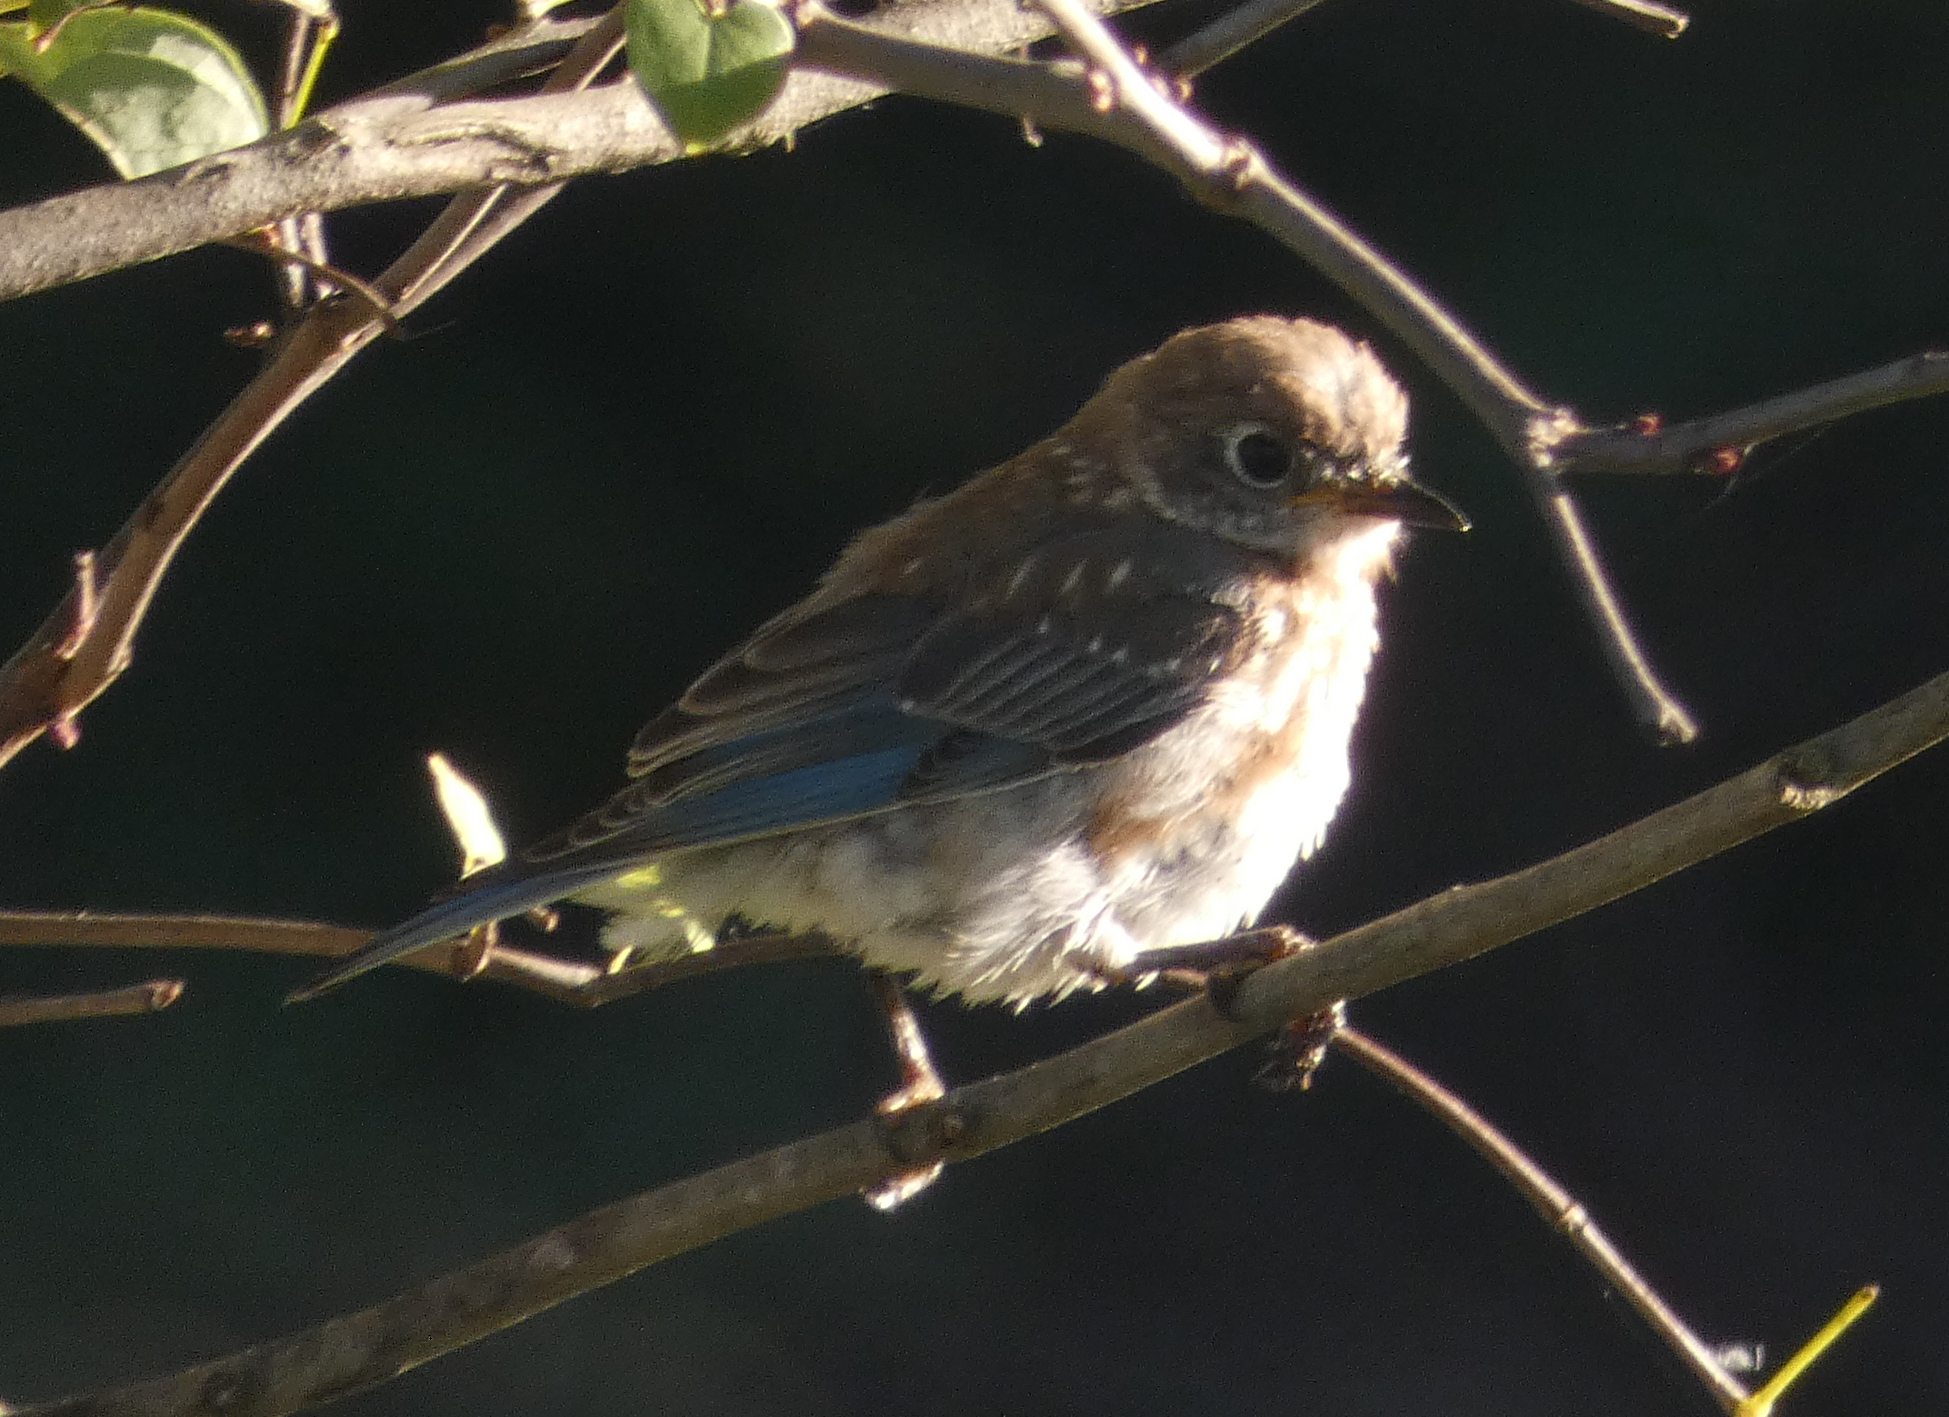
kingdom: Animalia
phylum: Chordata
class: Aves
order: Passeriformes
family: Turdidae
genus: Sialia
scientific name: Sialia sialis
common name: Eastern bluebird
